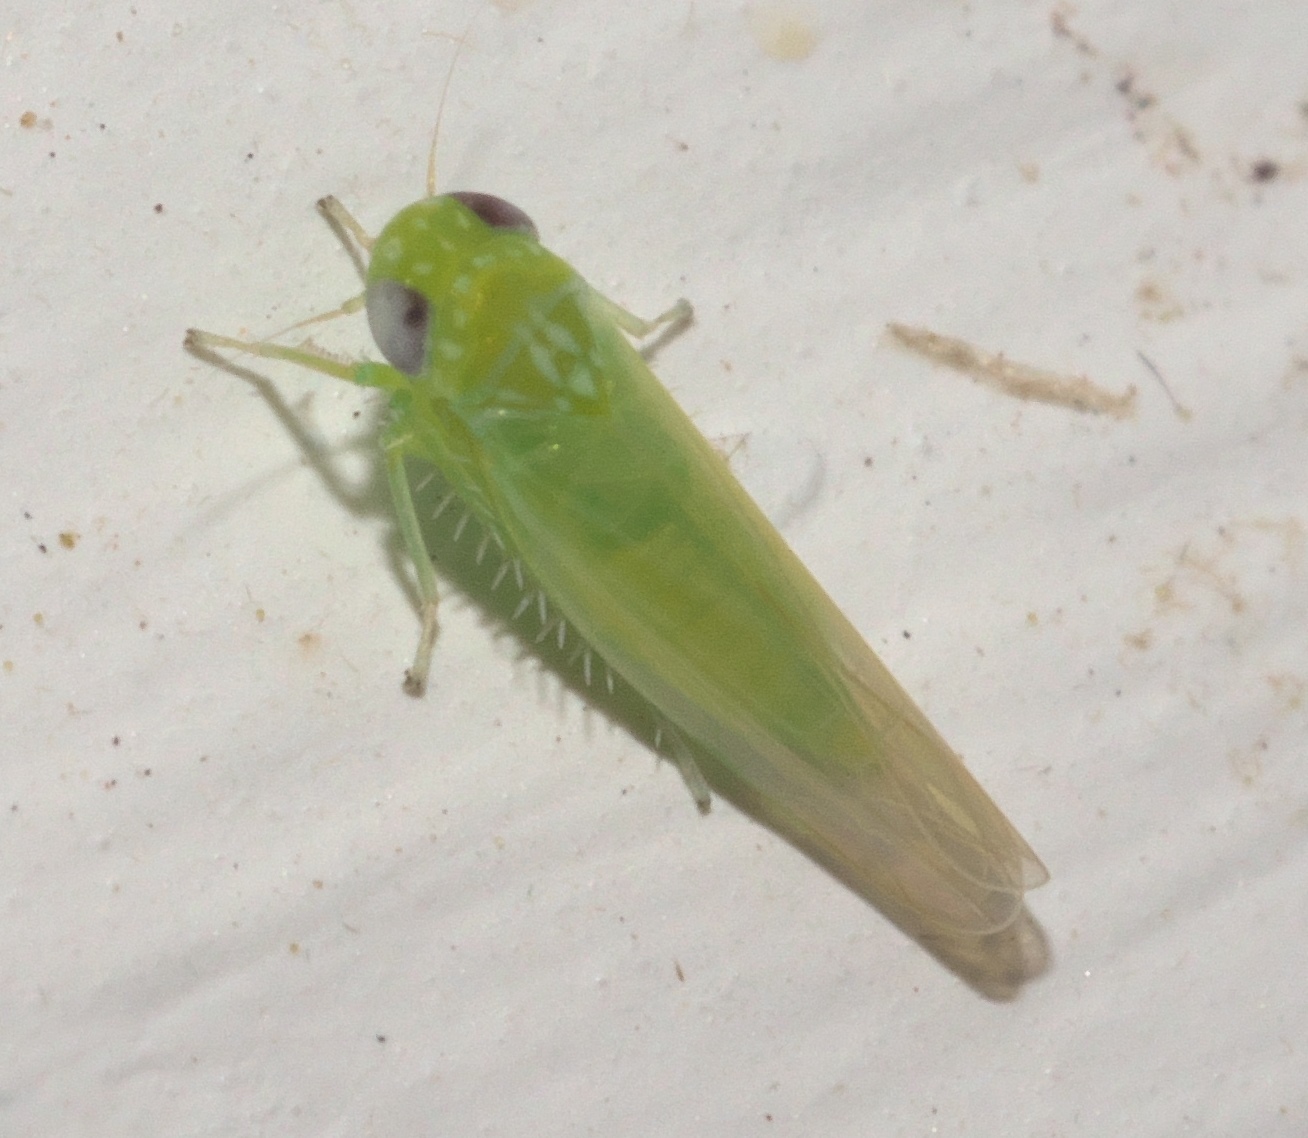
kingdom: Animalia
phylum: Arthropoda
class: Insecta
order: Hemiptera
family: Cicadellidae
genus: Empoasca
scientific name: Empoasca fabae
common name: Potato leafhopper
